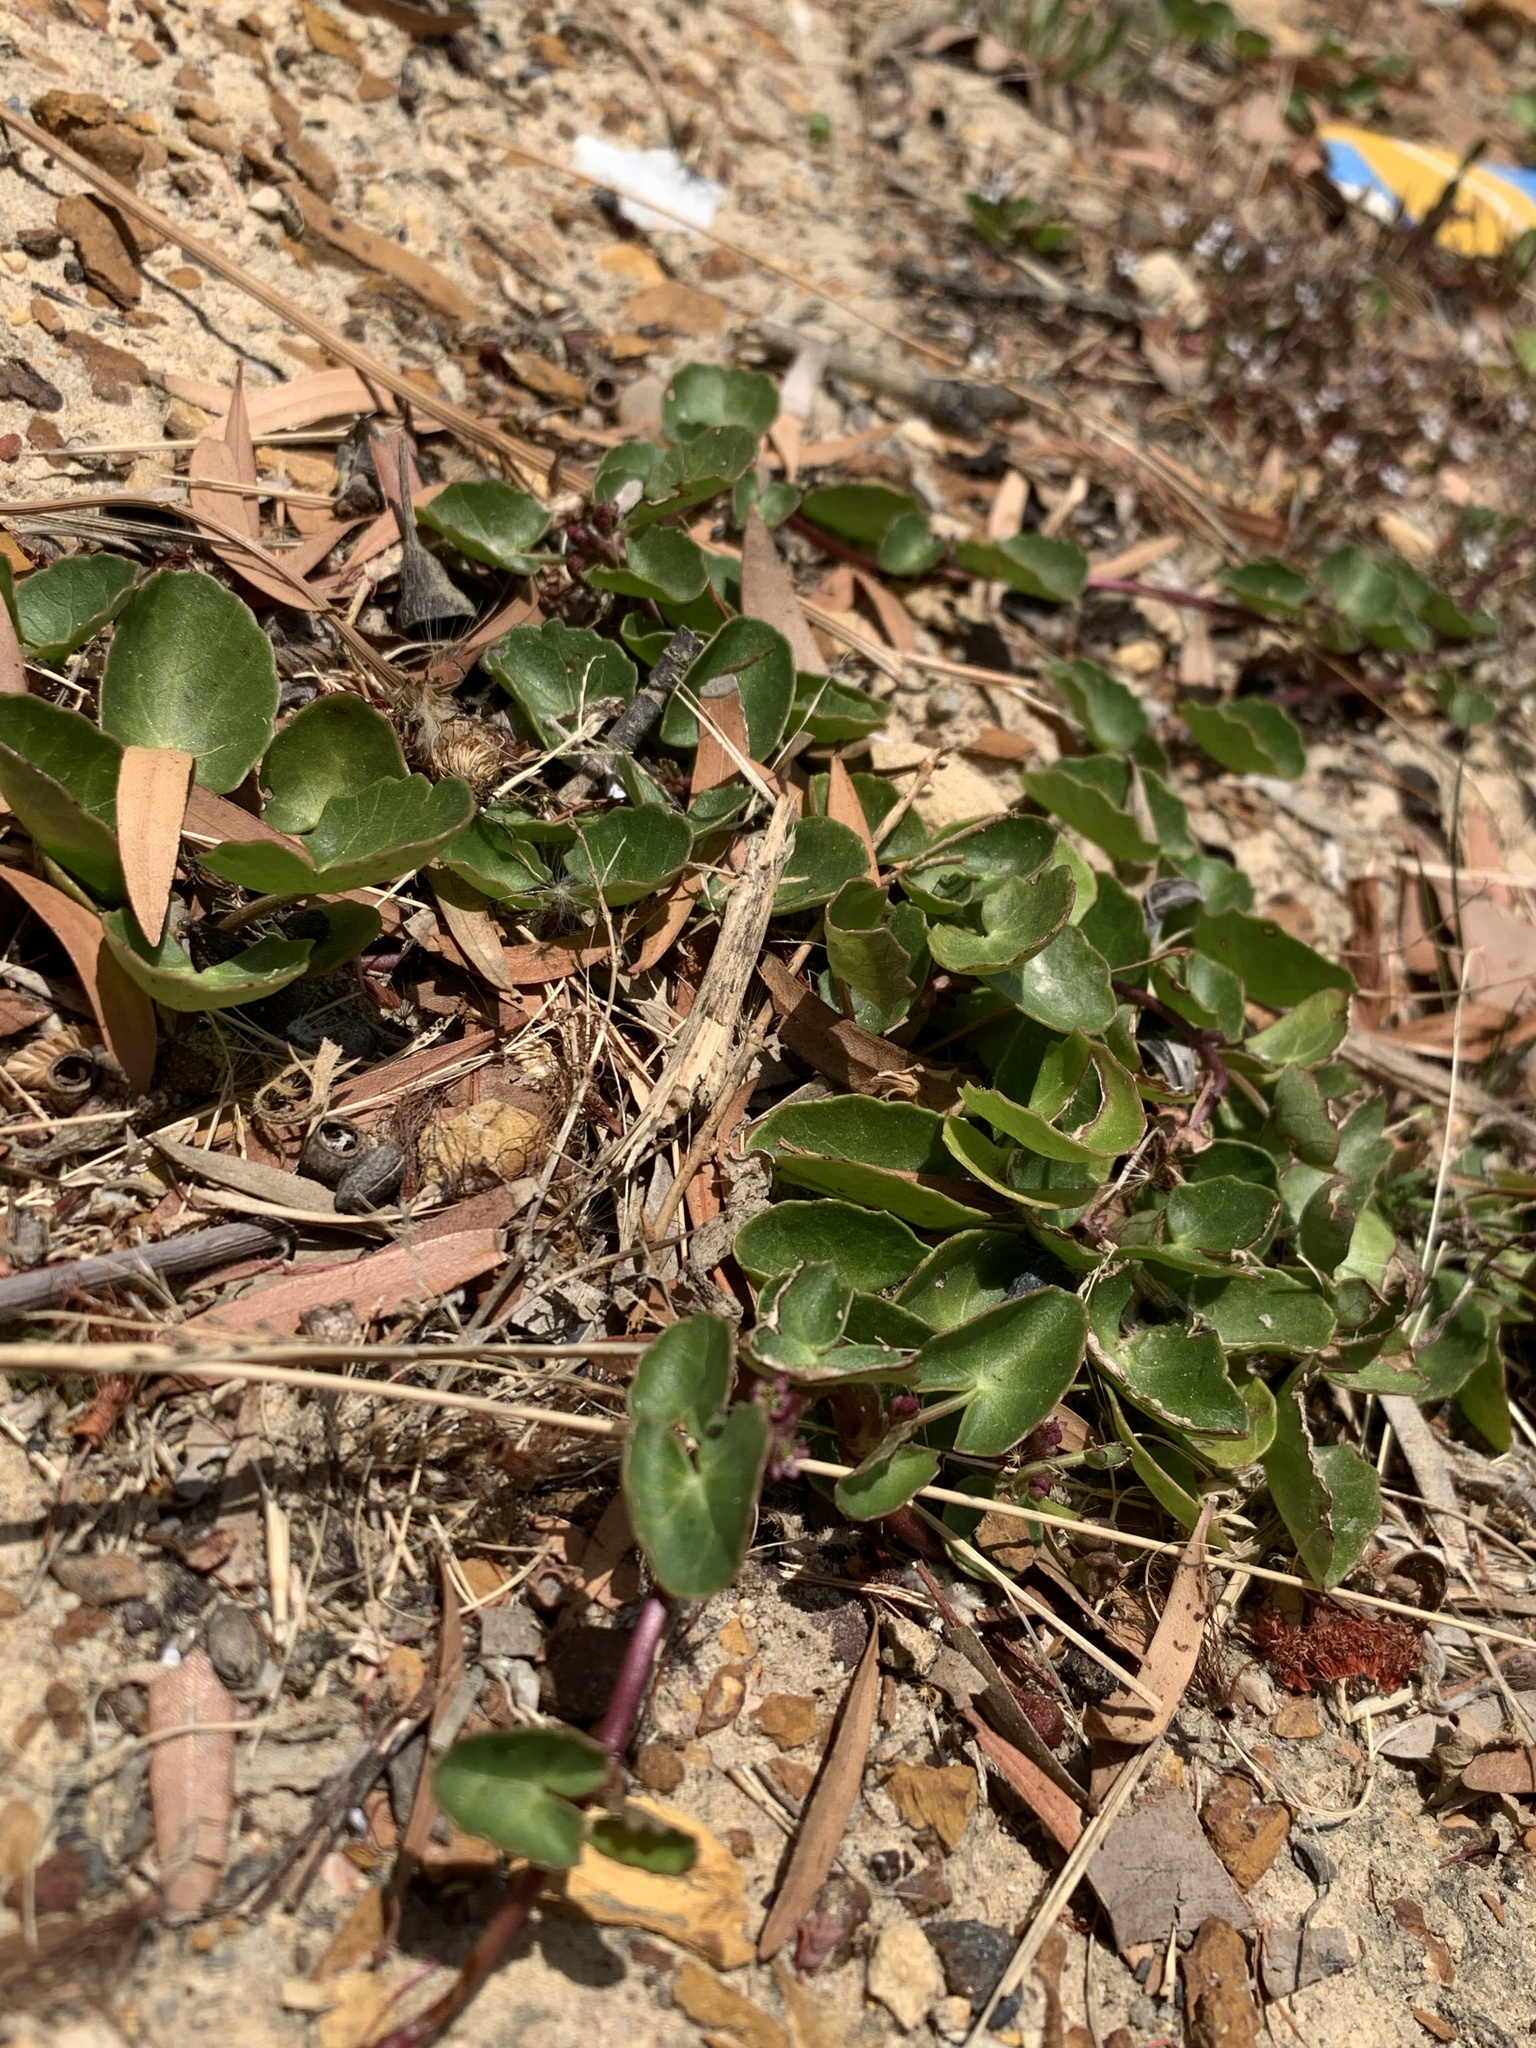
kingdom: Plantae
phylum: Tracheophyta
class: Magnoliopsida
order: Apiales
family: Apiaceae
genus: Centella
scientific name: Centella asiatica
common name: Spadeleaf
